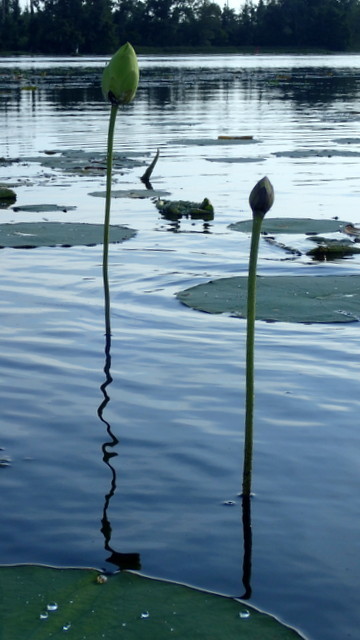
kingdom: Plantae
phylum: Tracheophyta
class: Magnoliopsida
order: Proteales
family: Nelumbonaceae
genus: Nelumbo
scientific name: Nelumbo lutea
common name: American lotus
